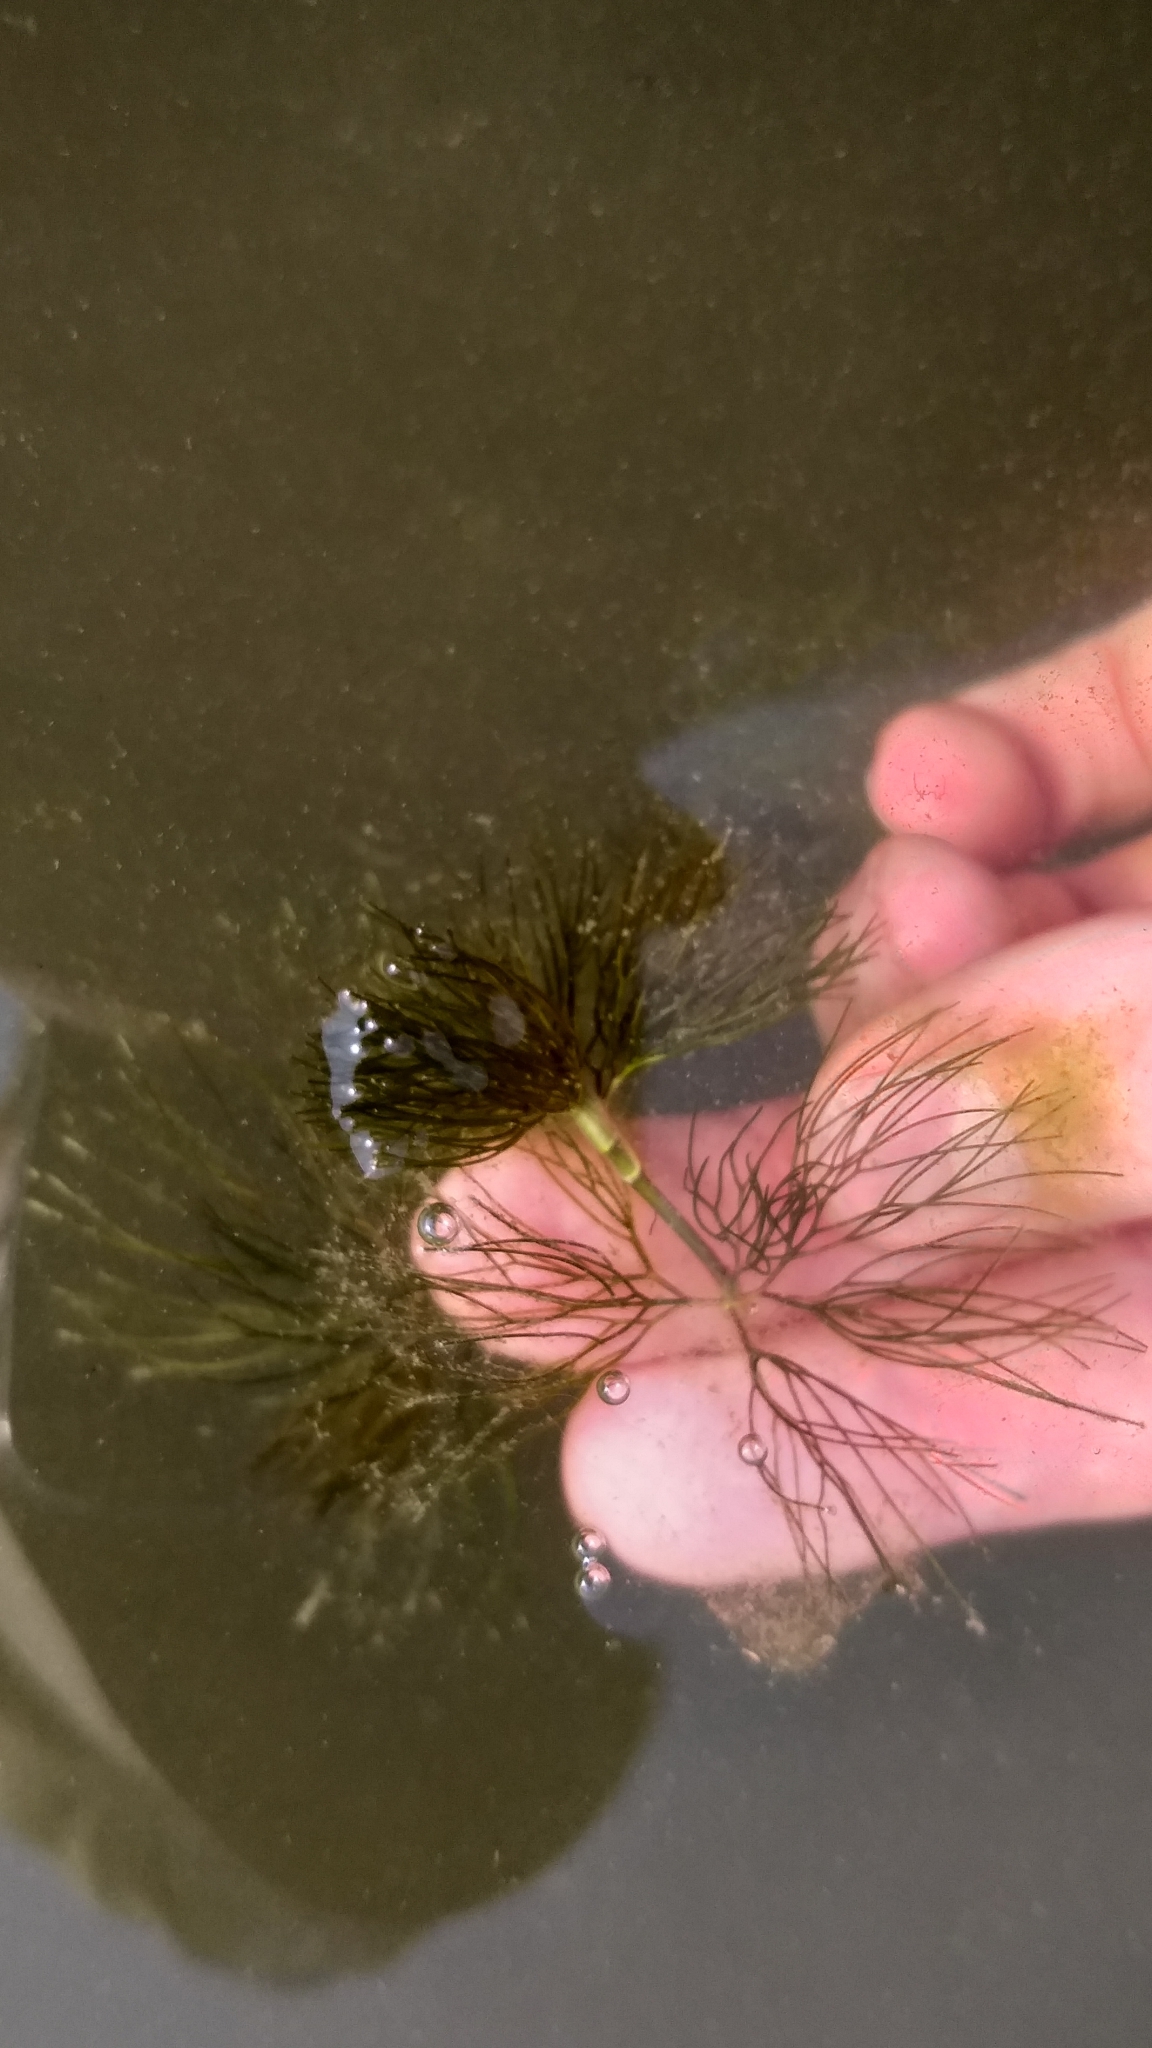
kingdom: Plantae
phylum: Tracheophyta
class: Magnoliopsida
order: Ranunculales
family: Ranunculaceae
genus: Ranunculus
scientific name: Ranunculus aquatilis
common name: Common water-crowfoot
